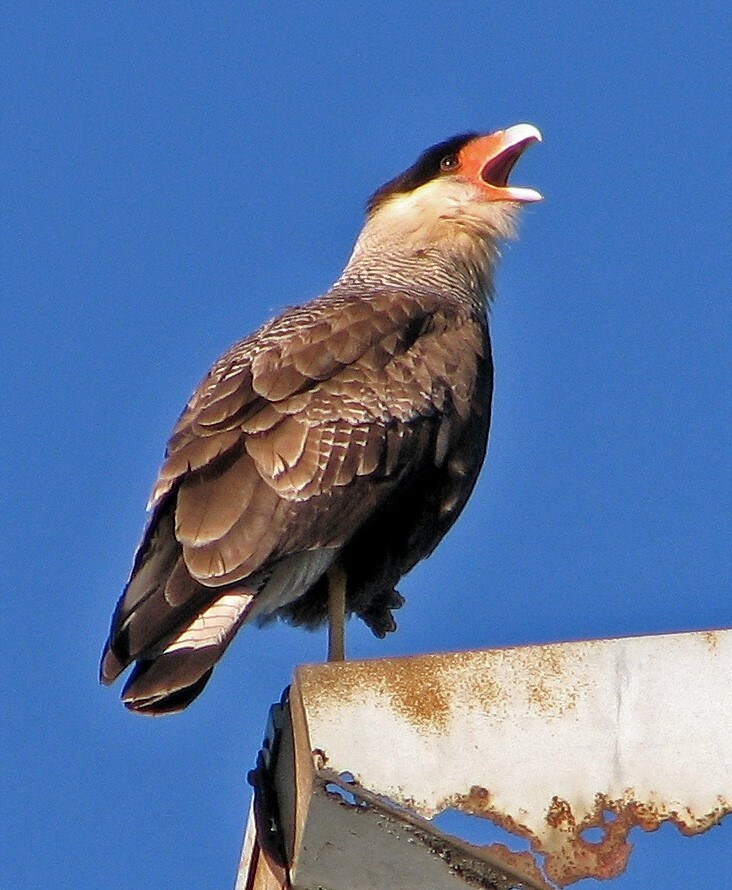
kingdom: Animalia
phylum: Chordata
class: Aves
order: Falconiformes
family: Falconidae
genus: Caracara
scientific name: Caracara plancus
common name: Southern caracara
